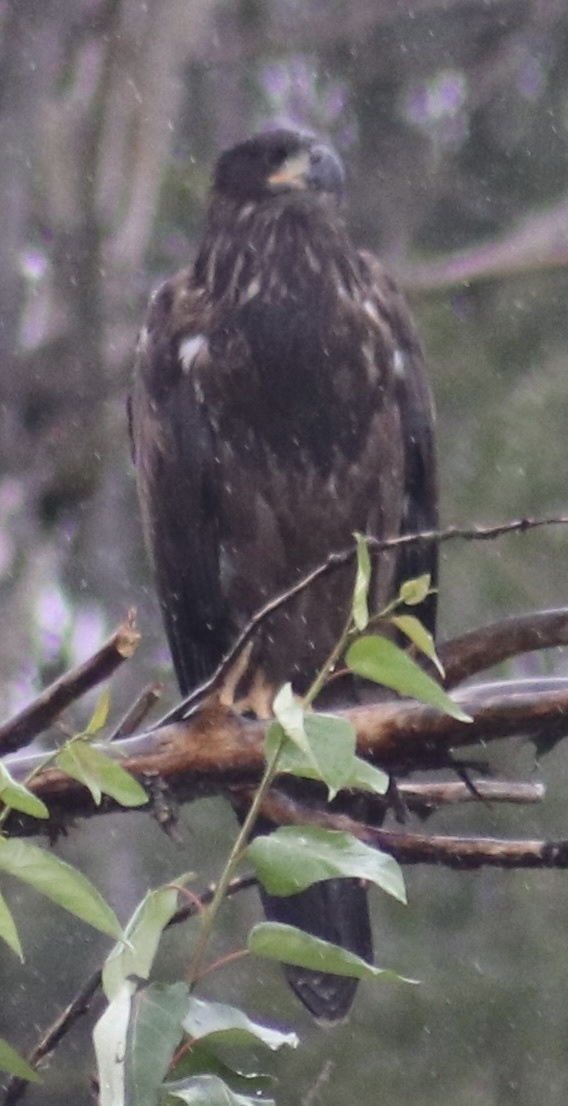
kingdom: Animalia
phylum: Chordata
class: Aves
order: Accipitriformes
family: Accipitridae
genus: Haliaeetus
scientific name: Haliaeetus leucocephalus
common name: Bald eagle
